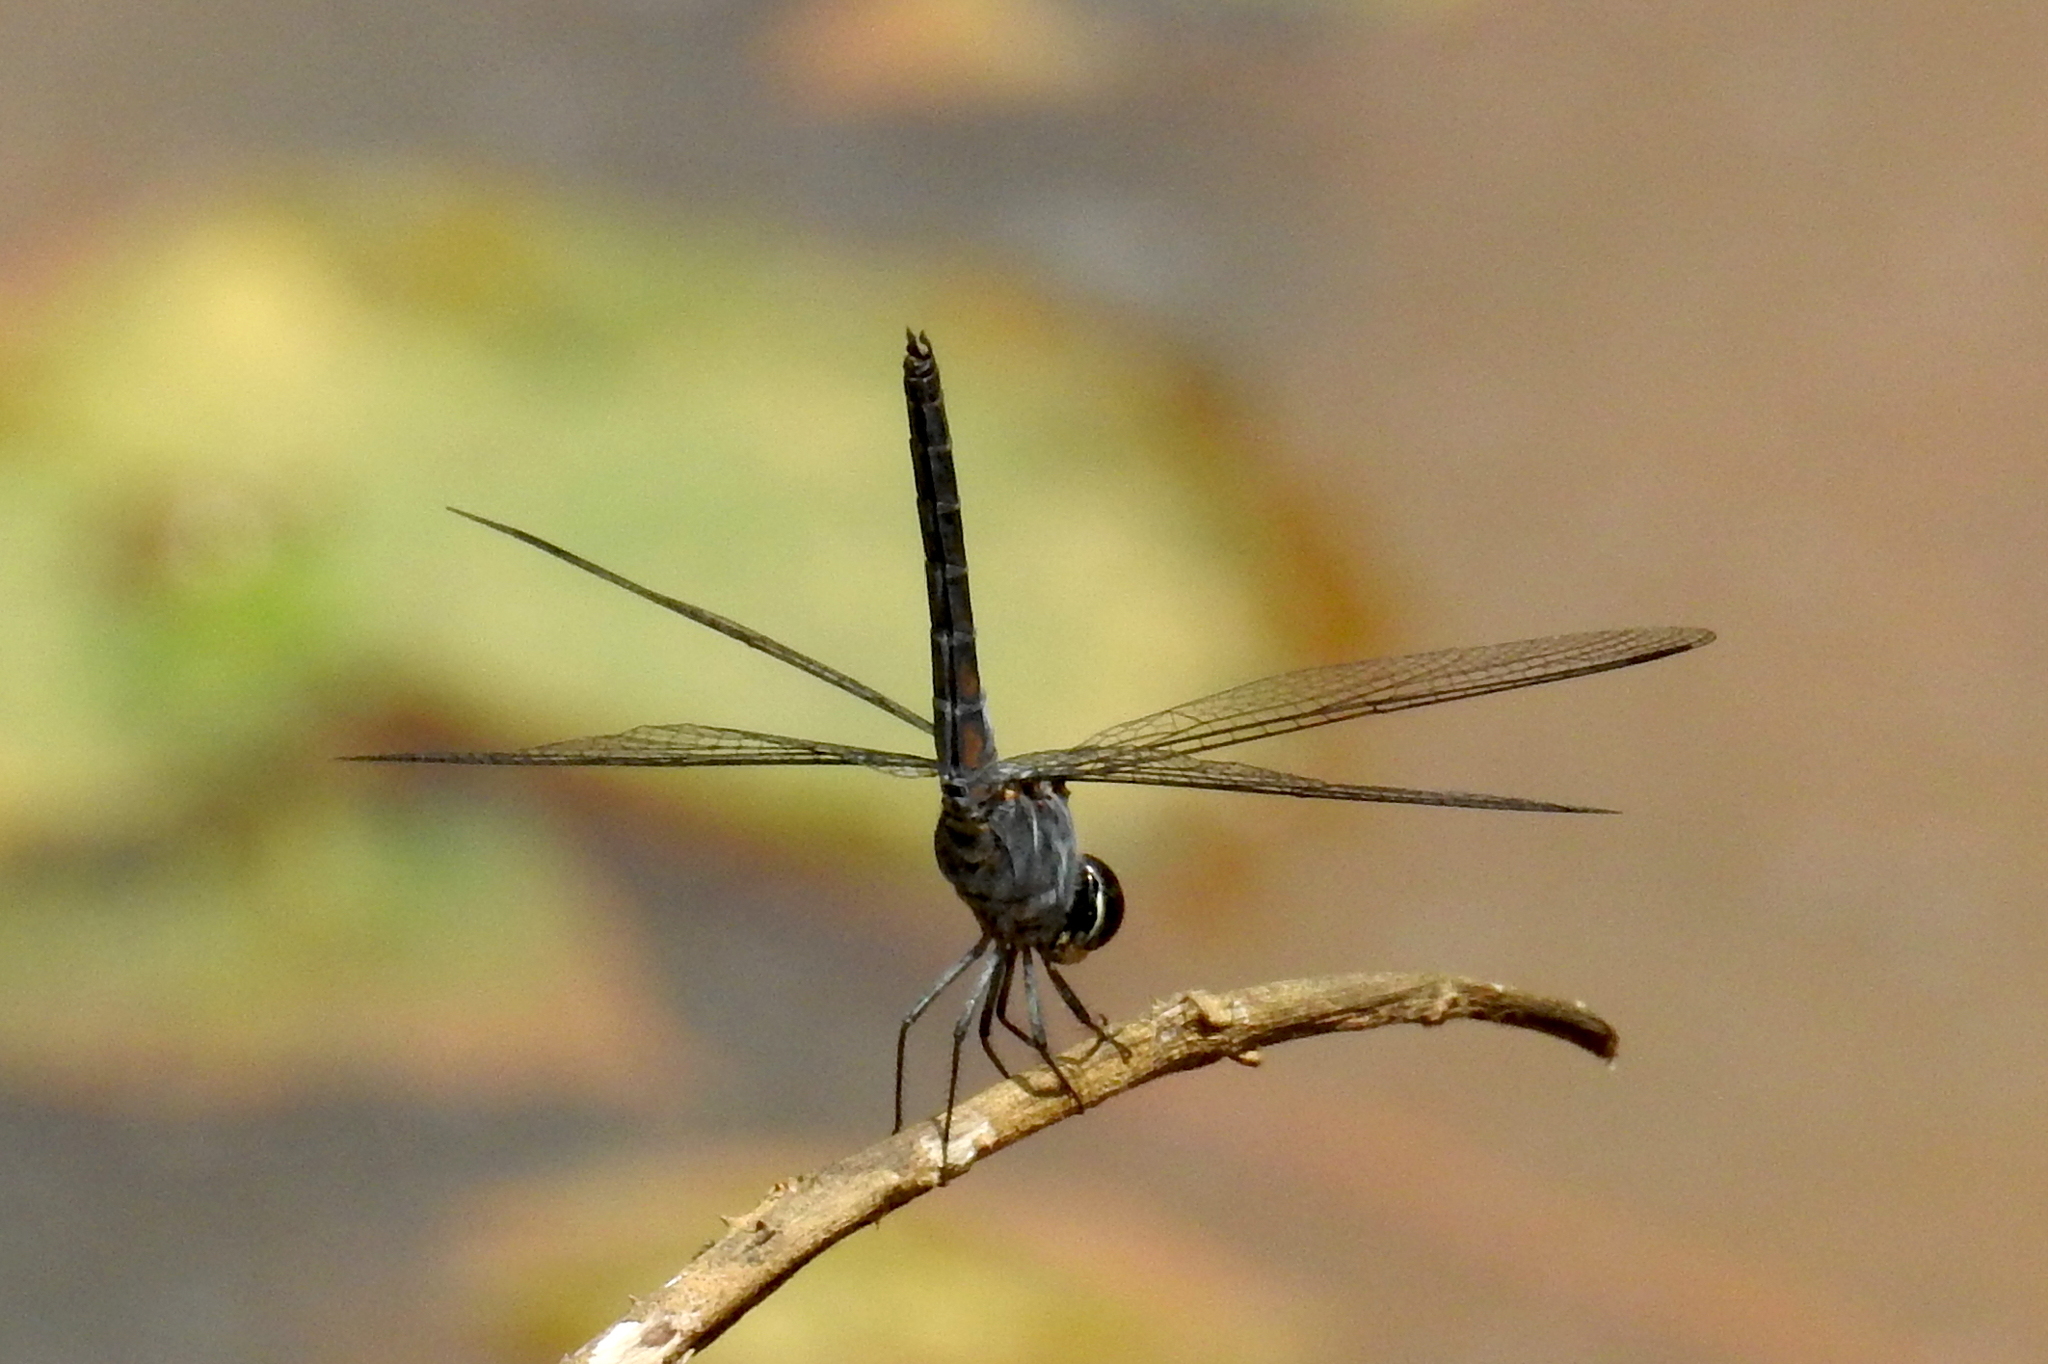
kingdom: Animalia
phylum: Arthropoda
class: Insecta
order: Odonata
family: Libellulidae
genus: Trithemis
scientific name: Trithemis festiva
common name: Indigo dropwing
